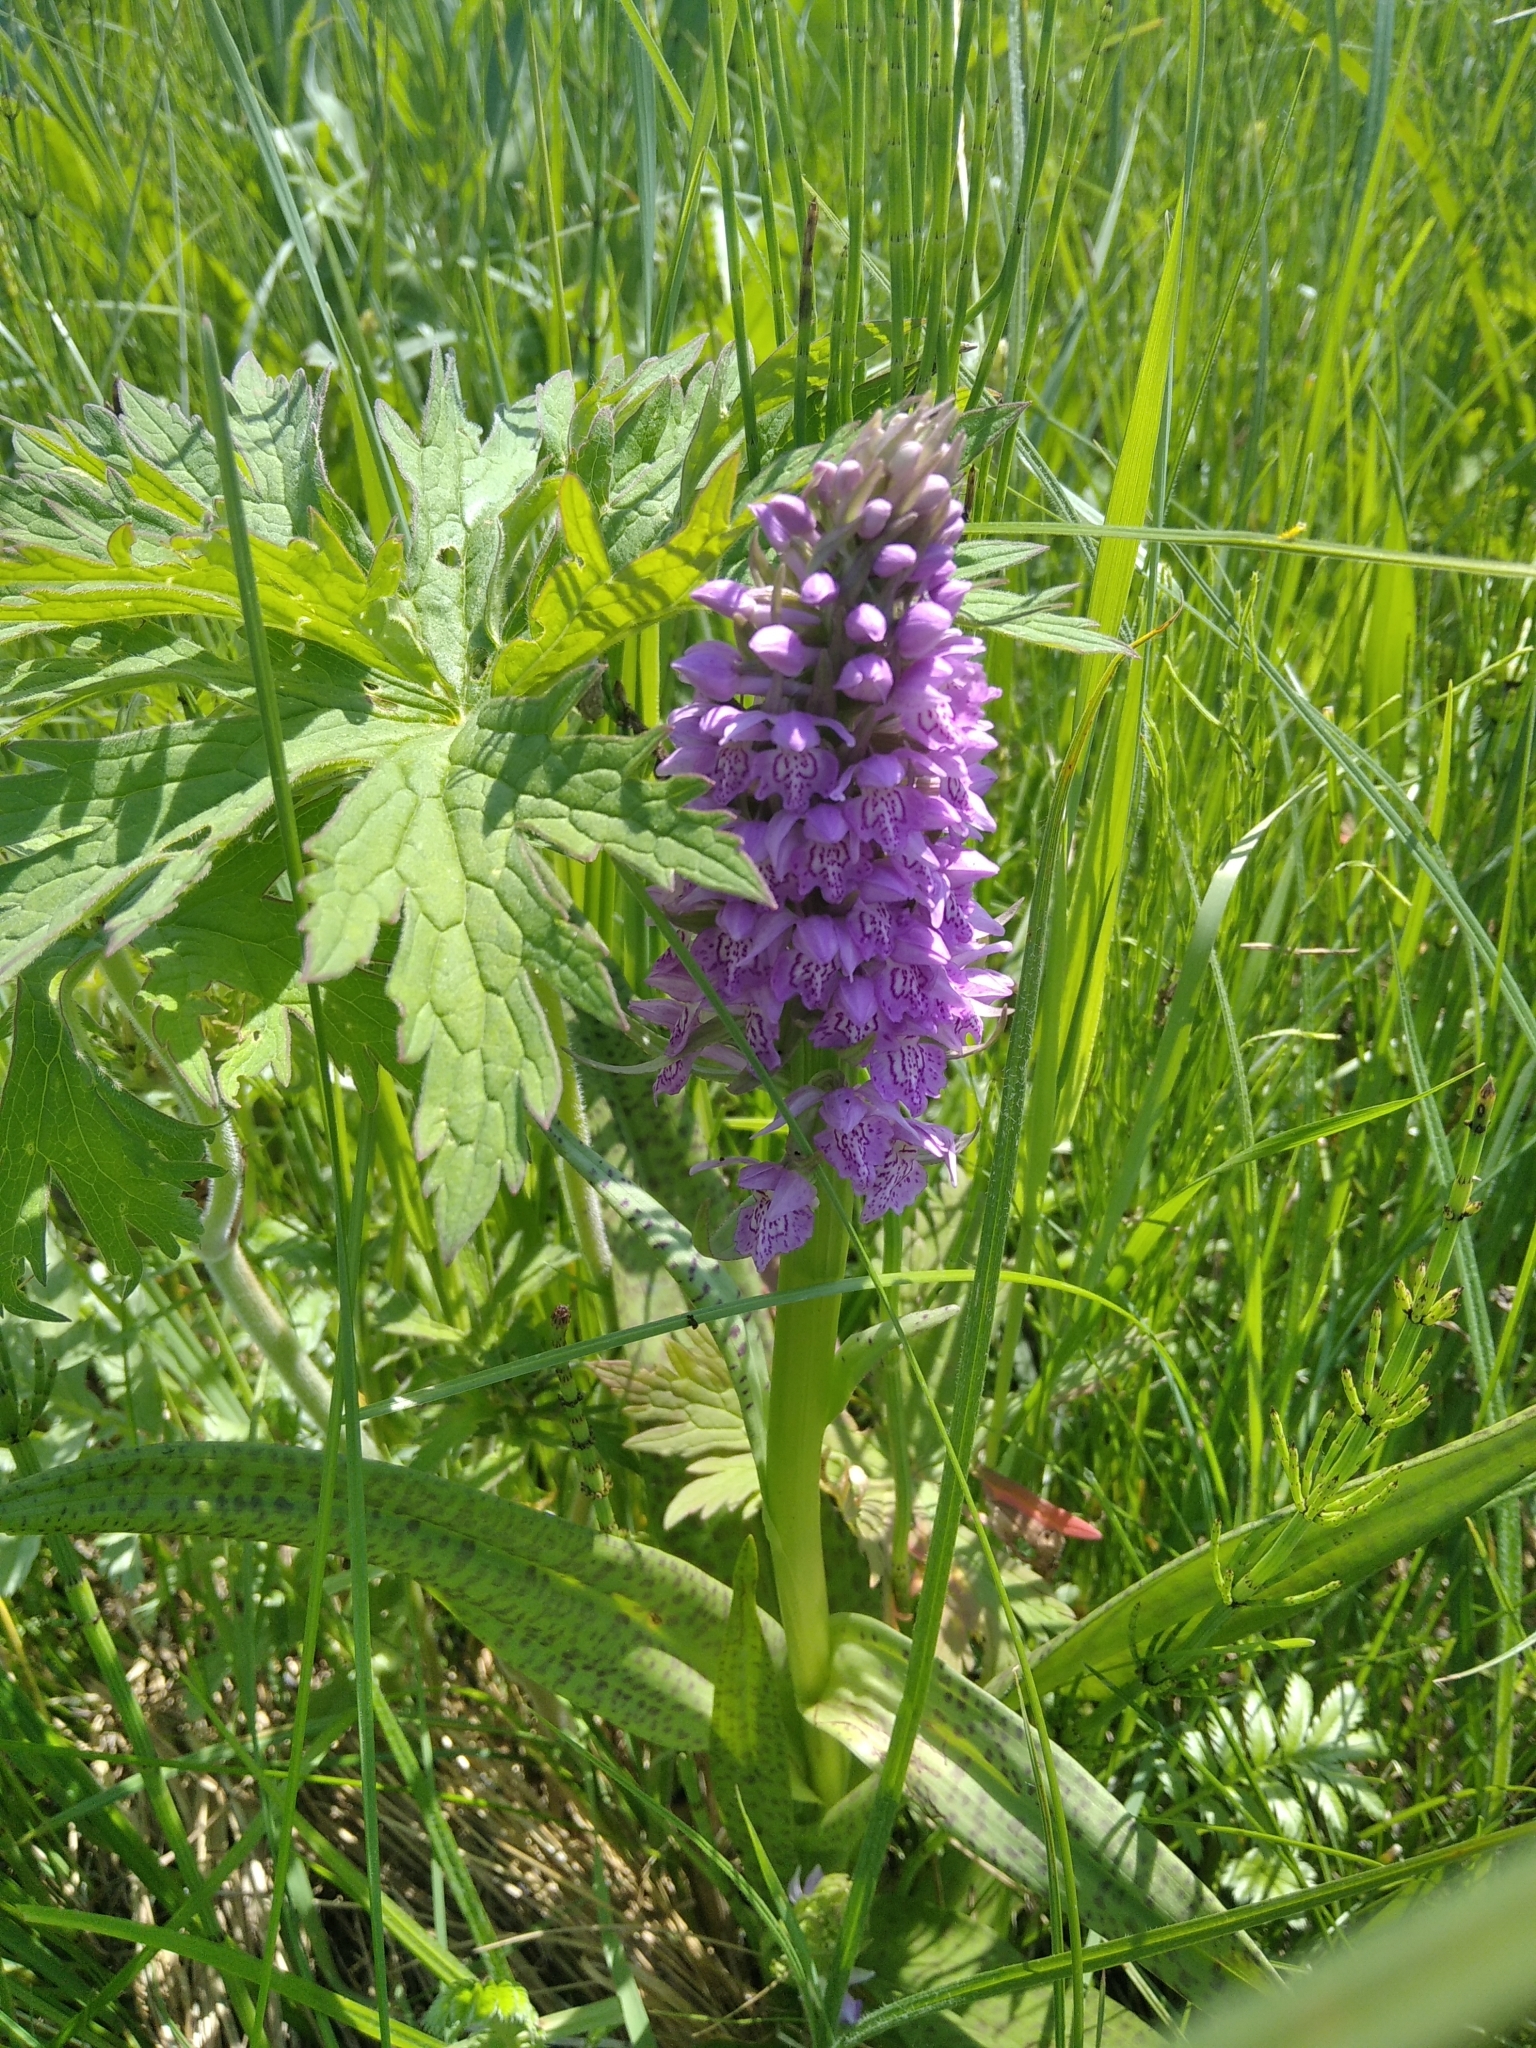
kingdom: Plantae
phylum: Tracheophyta
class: Liliopsida
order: Asparagales
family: Orchidaceae
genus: Dactylorhiza
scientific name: Dactylorhiza majalis
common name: Marsh orchid
